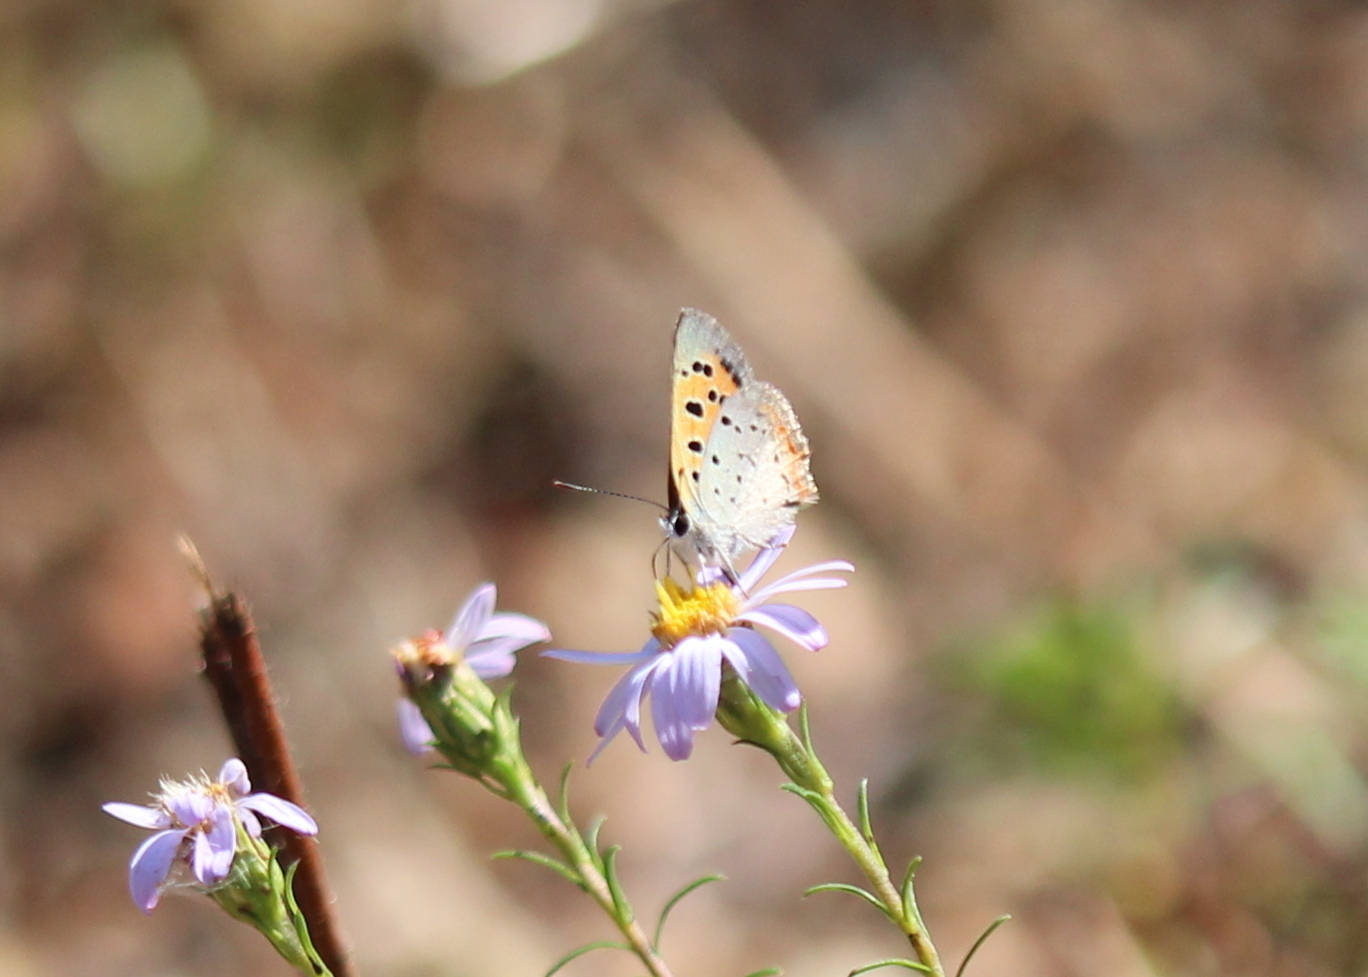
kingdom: Animalia
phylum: Arthropoda
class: Insecta
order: Lepidoptera
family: Lycaenidae
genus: Lycaena
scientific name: Lycaena hypophlaeas
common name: American copper
